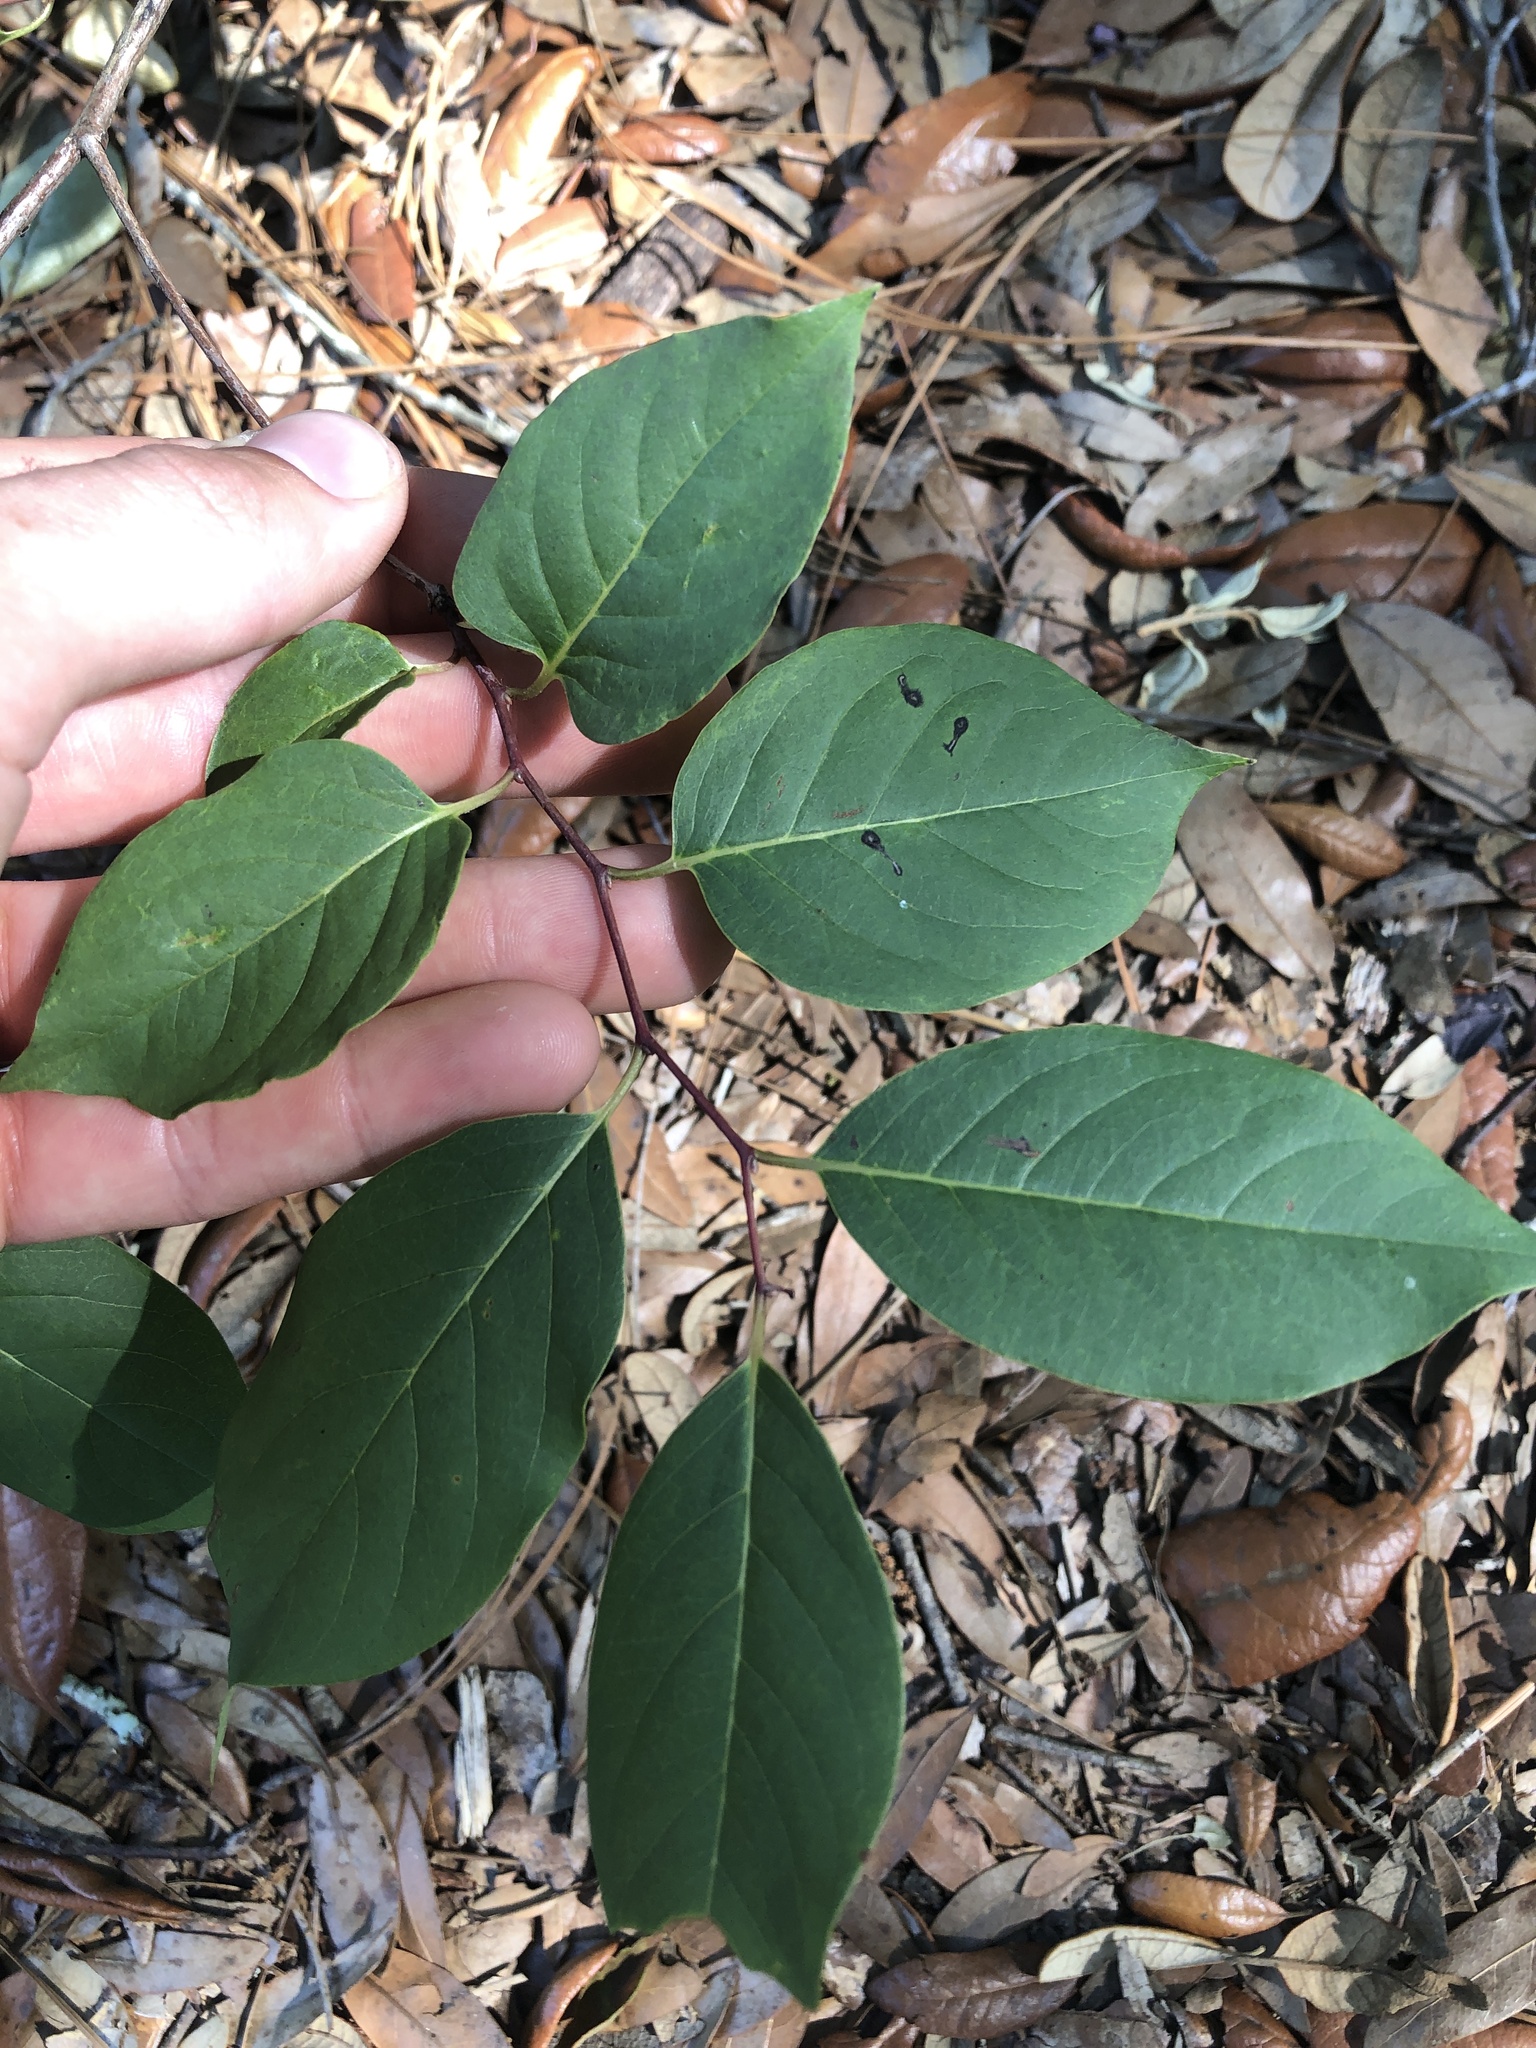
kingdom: Plantae
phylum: Tracheophyta
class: Magnoliopsida
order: Ericales
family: Ebenaceae
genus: Diospyros
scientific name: Diospyros virginiana
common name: Persimmon
